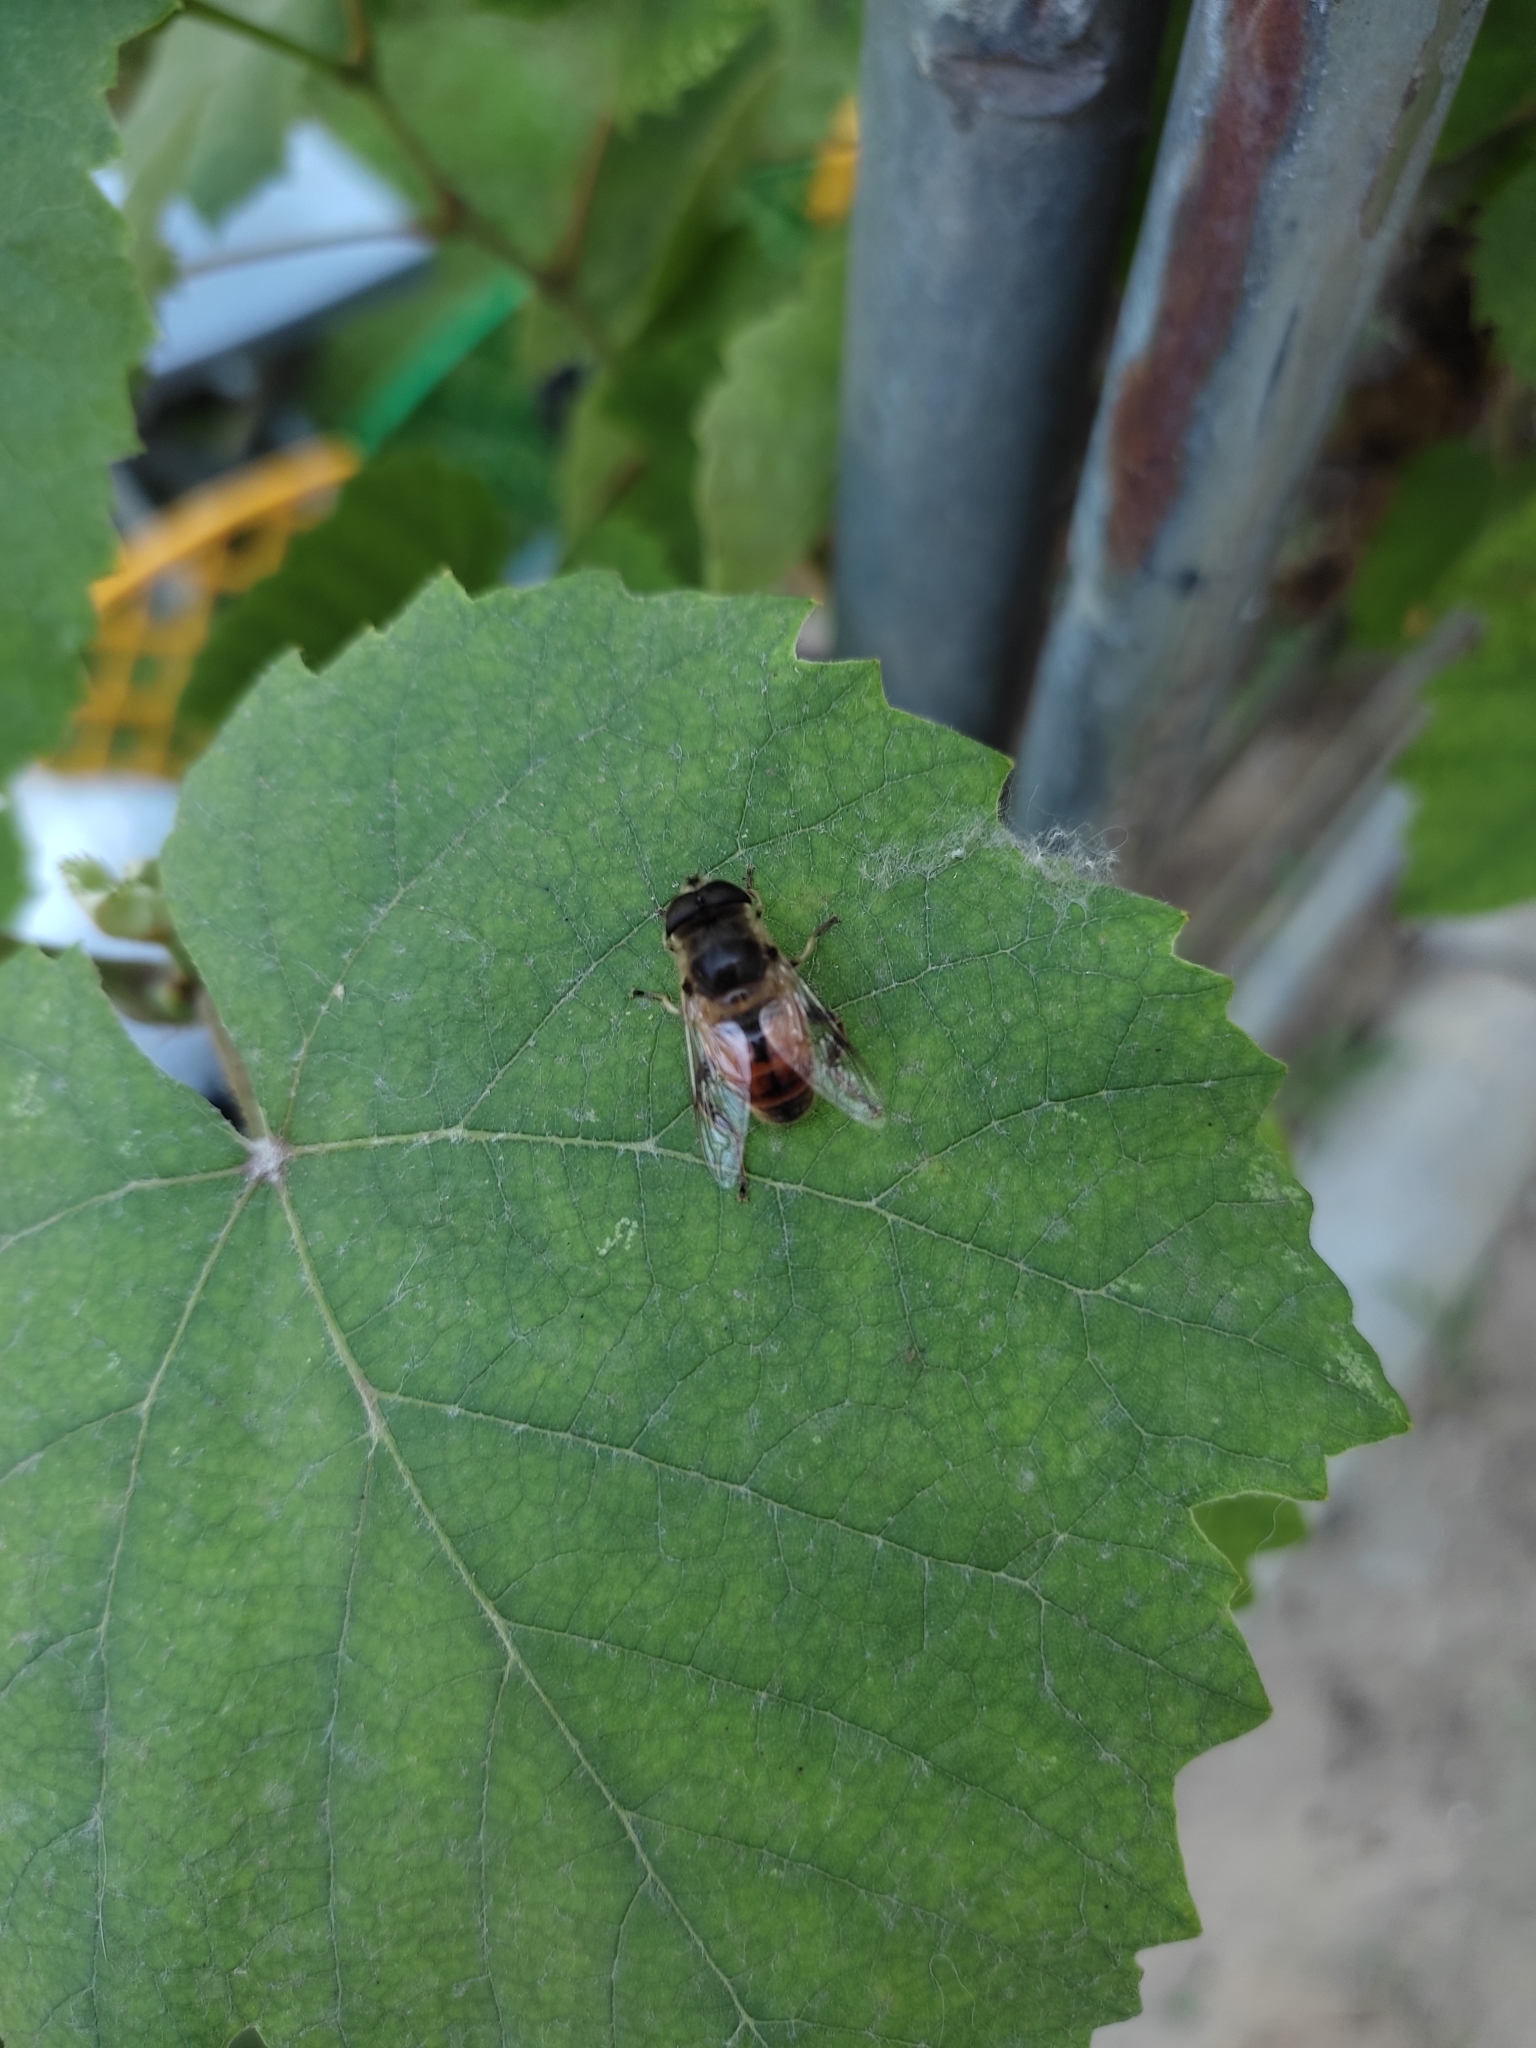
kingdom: Animalia
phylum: Arthropoda
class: Insecta
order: Diptera
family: Syrphidae
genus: Eristalis
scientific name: Eristalis tenax
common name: Drone fly
